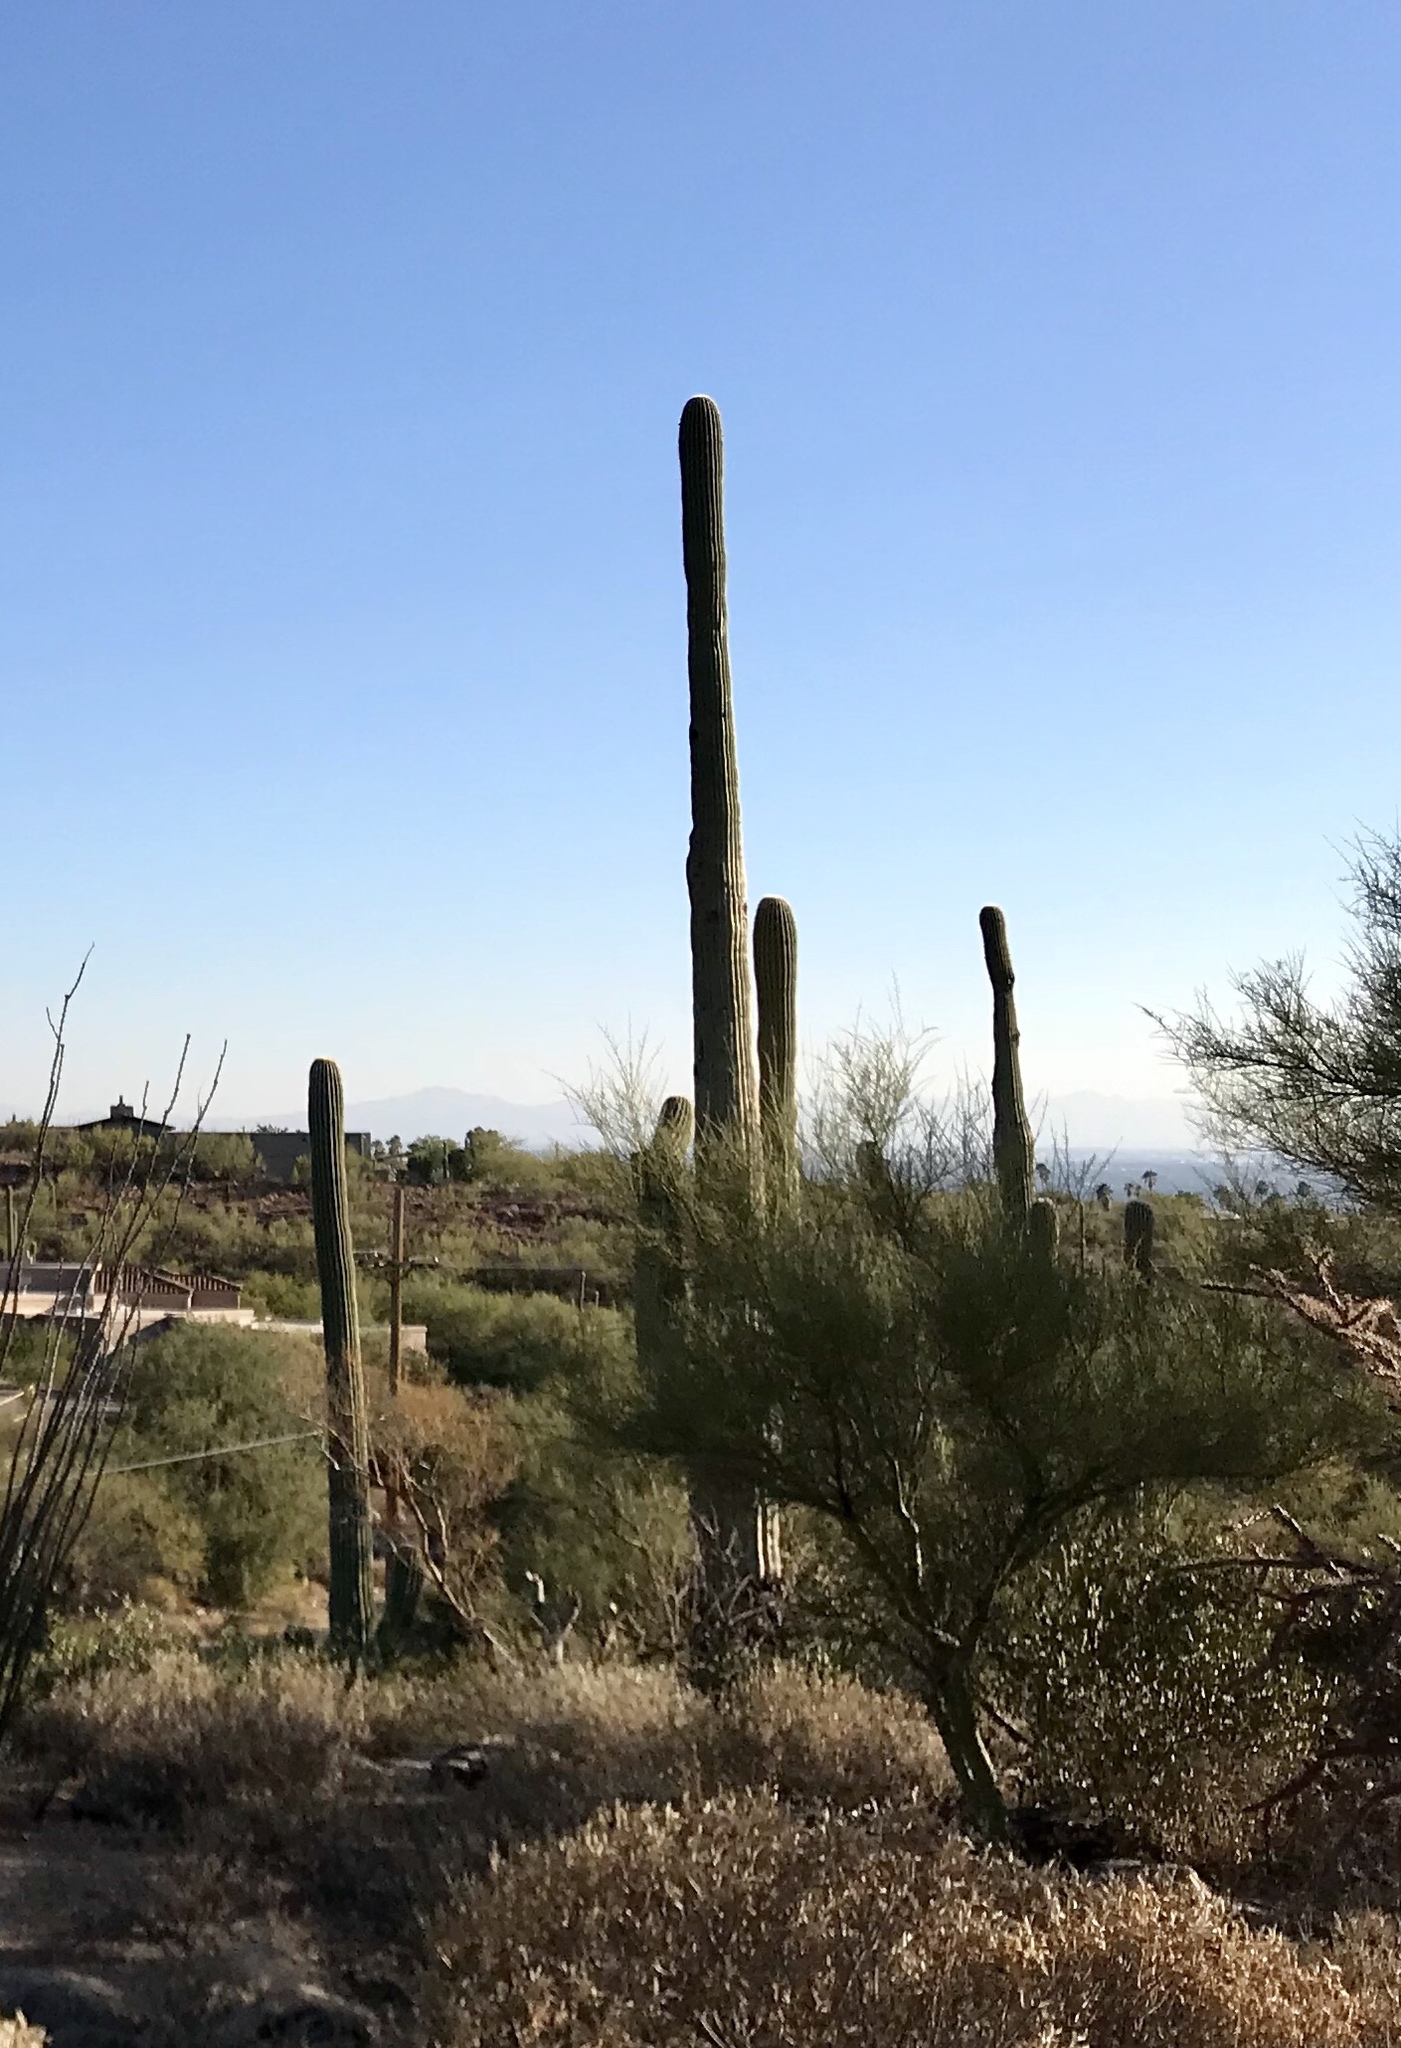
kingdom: Plantae
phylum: Tracheophyta
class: Magnoliopsida
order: Caryophyllales
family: Cactaceae
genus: Carnegiea
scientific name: Carnegiea gigantea
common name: Saguaro
